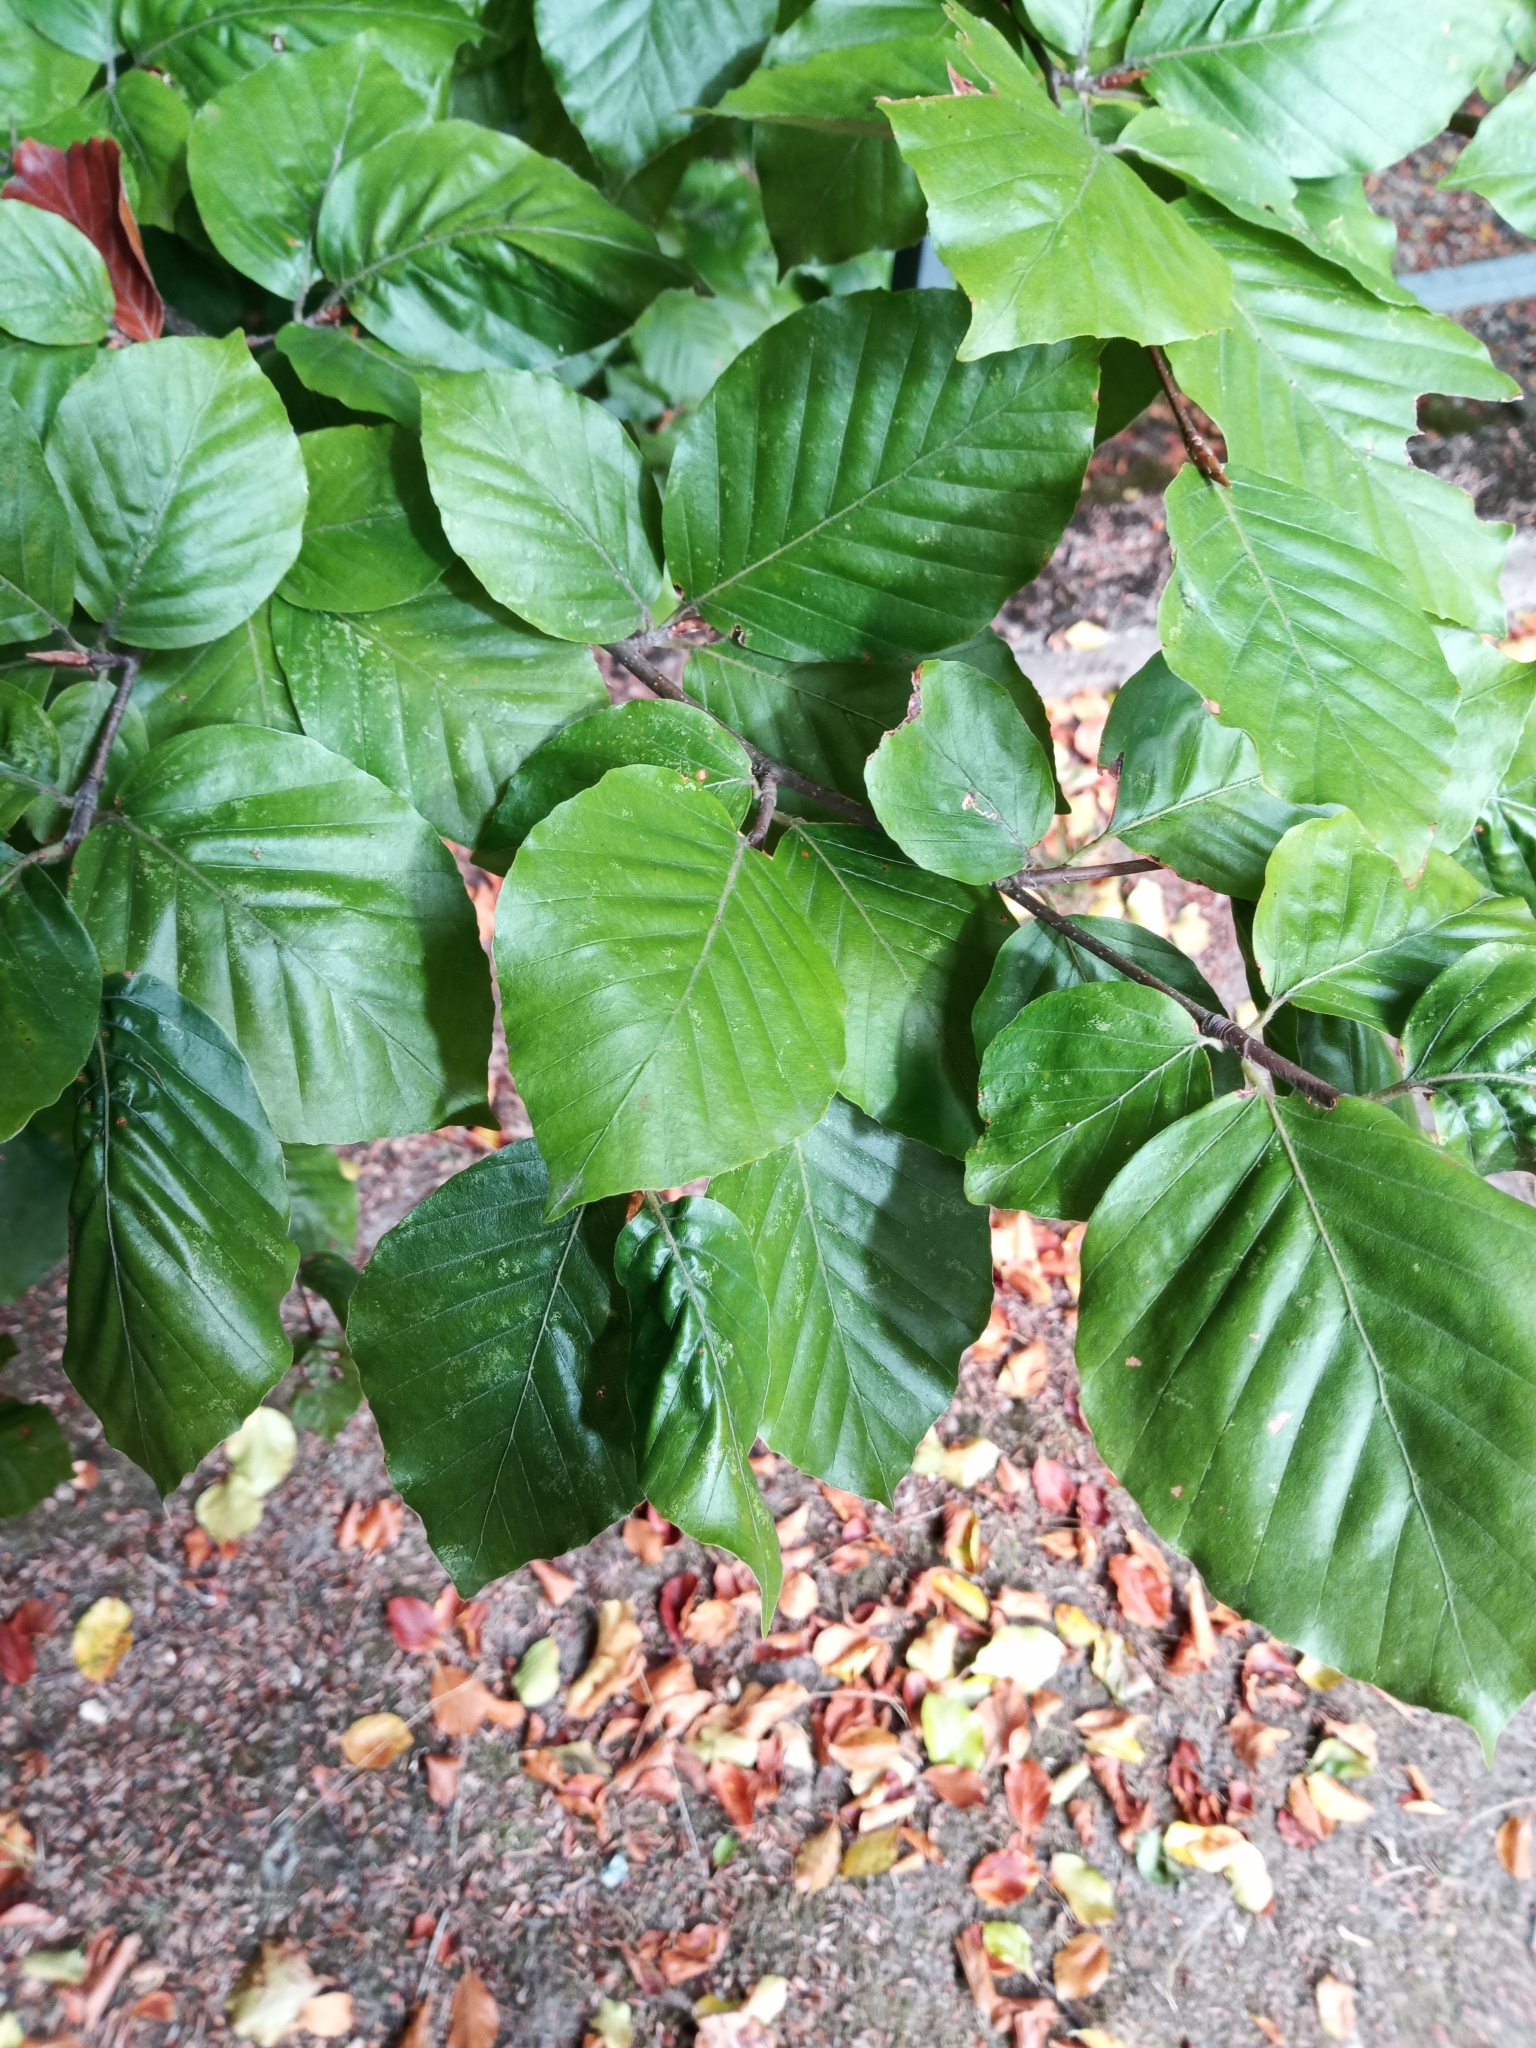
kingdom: Plantae
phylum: Tracheophyta
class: Magnoliopsida
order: Fagales
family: Fagaceae
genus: Fagus
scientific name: Fagus sylvatica
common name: Beech
